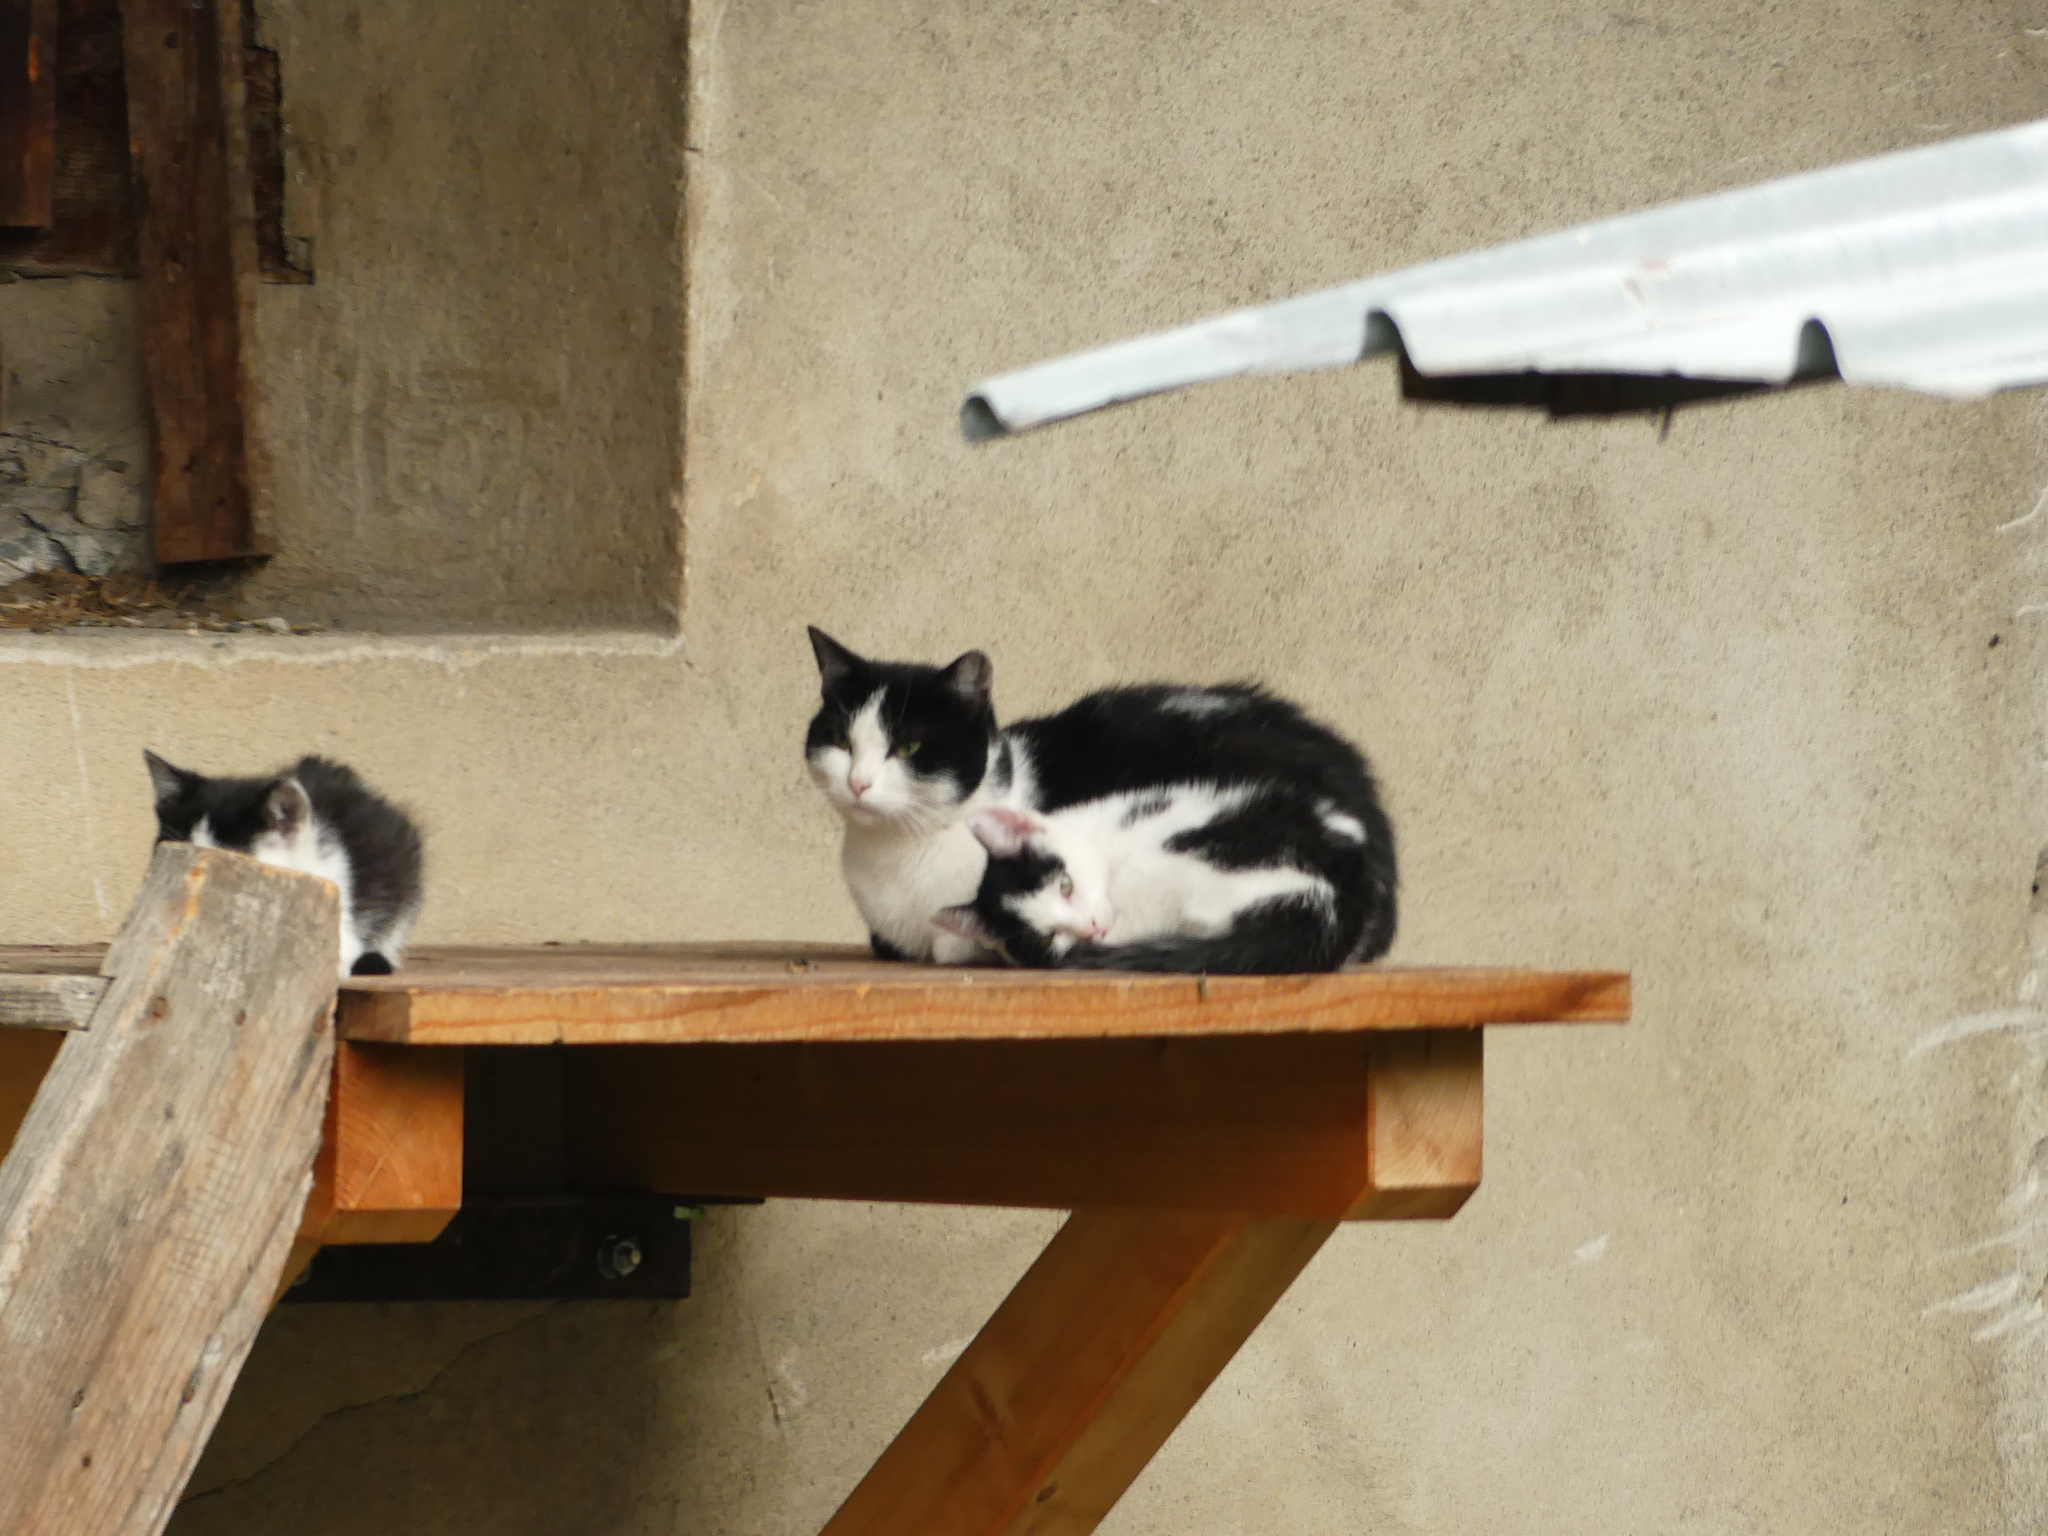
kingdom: Animalia
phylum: Chordata
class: Mammalia
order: Carnivora
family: Felidae
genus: Felis
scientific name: Felis catus
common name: Domestic cat
